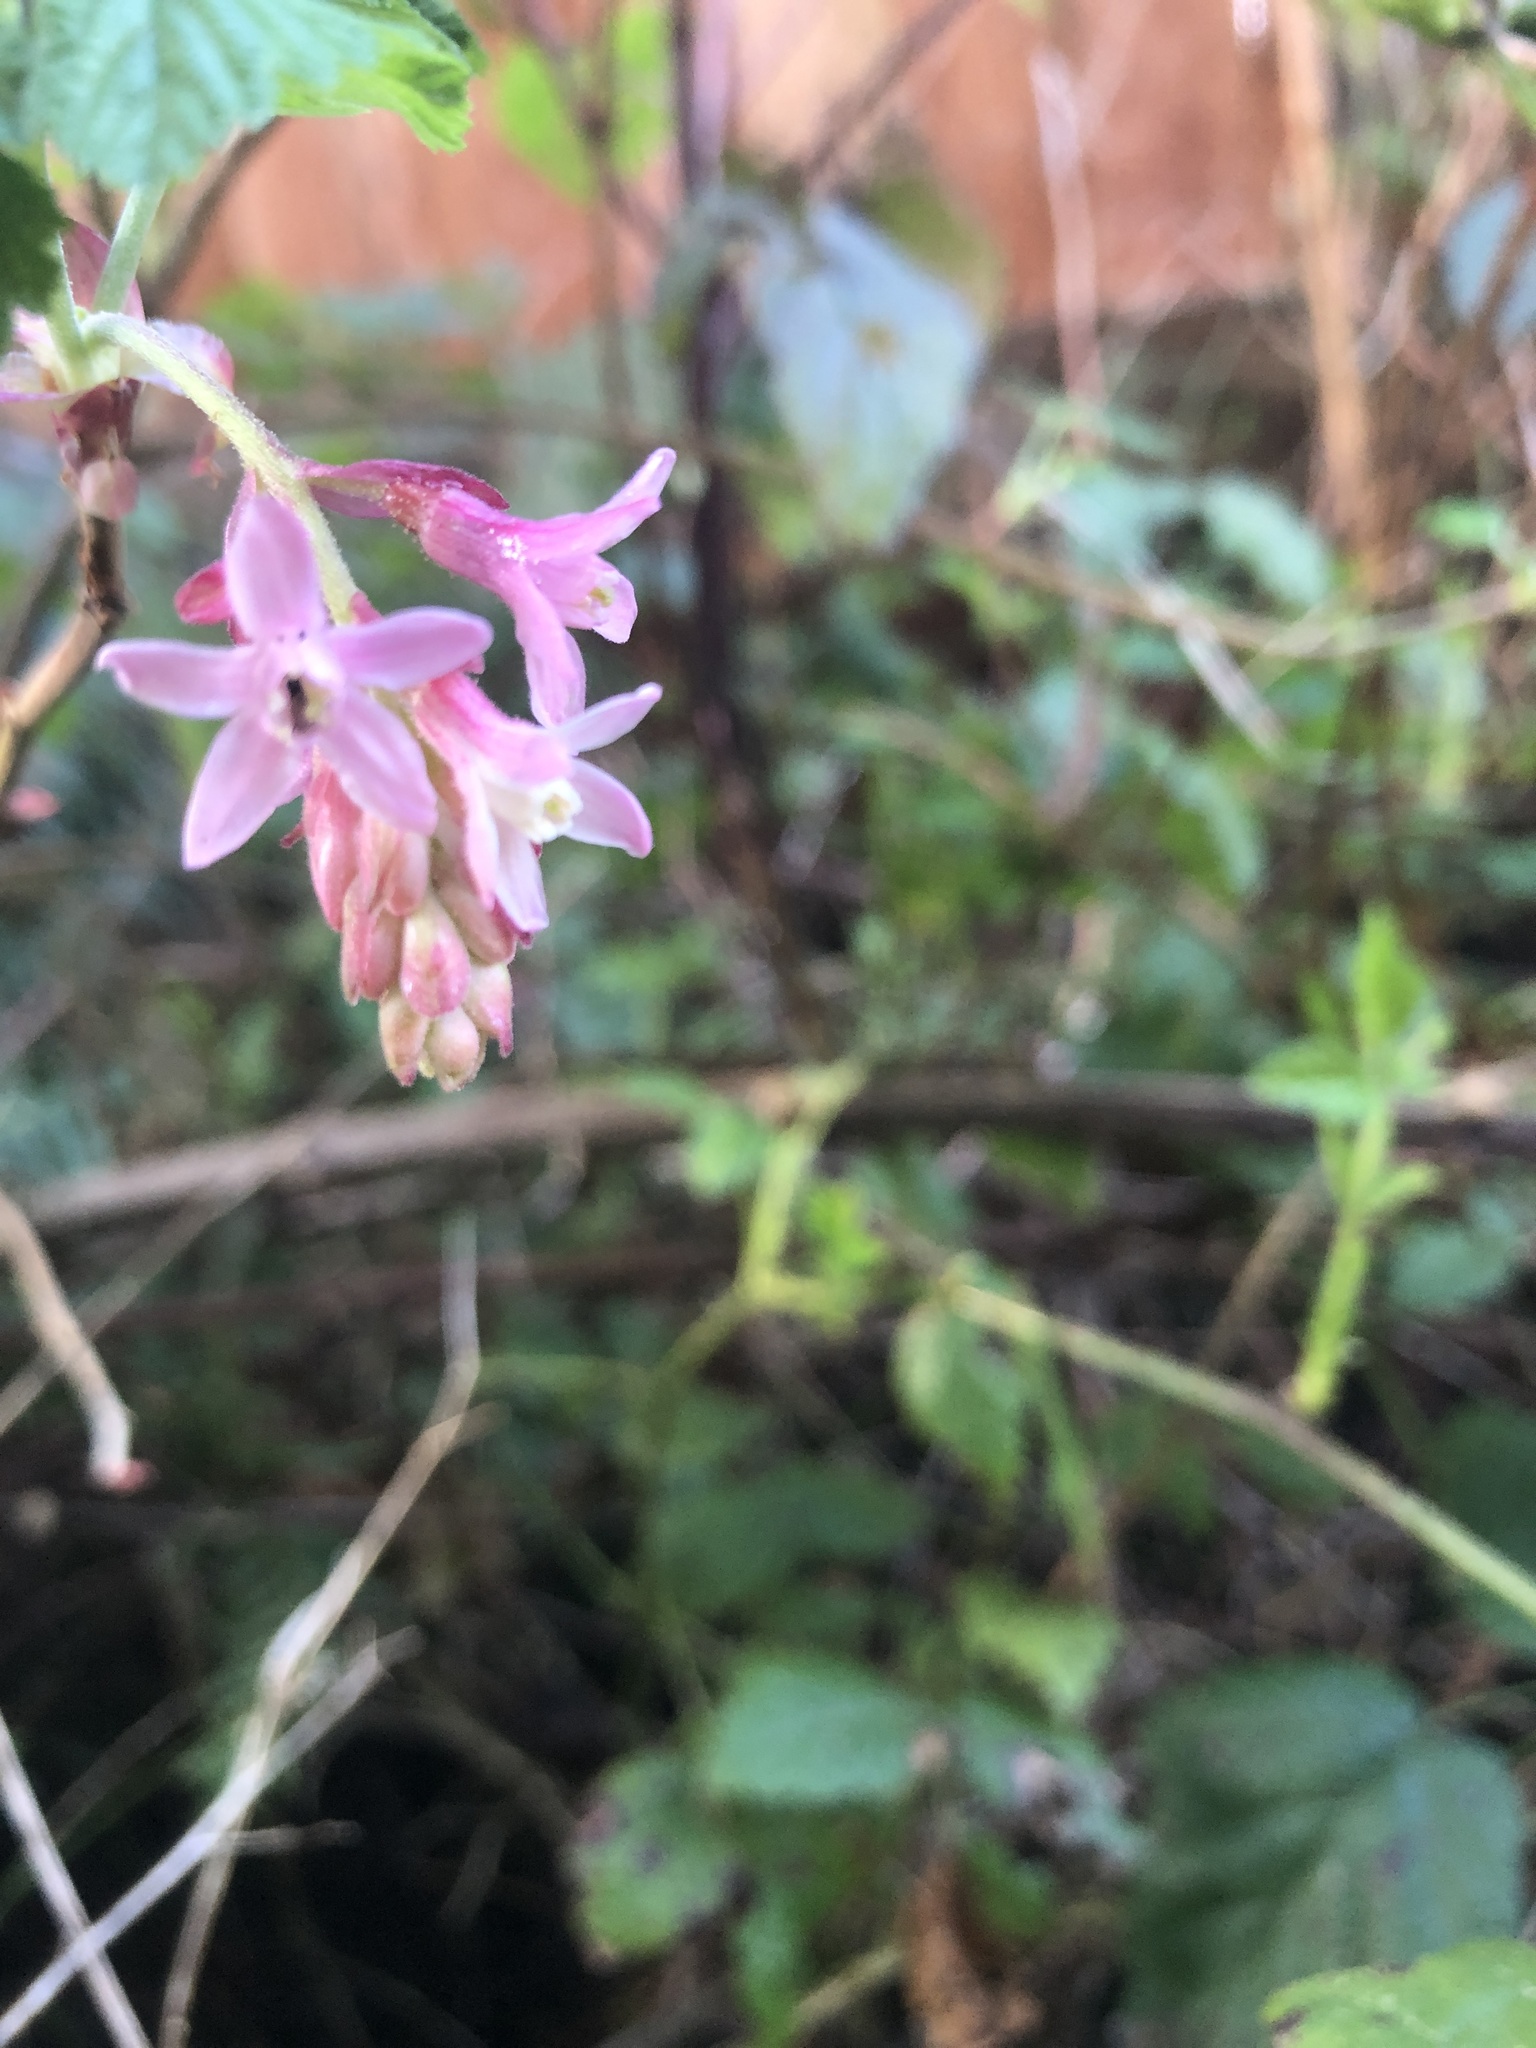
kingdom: Plantae
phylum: Tracheophyta
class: Magnoliopsida
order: Saxifragales
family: Grossulariaceae
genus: Ribes
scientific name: Ribes sanguineum
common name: Flowering currant
